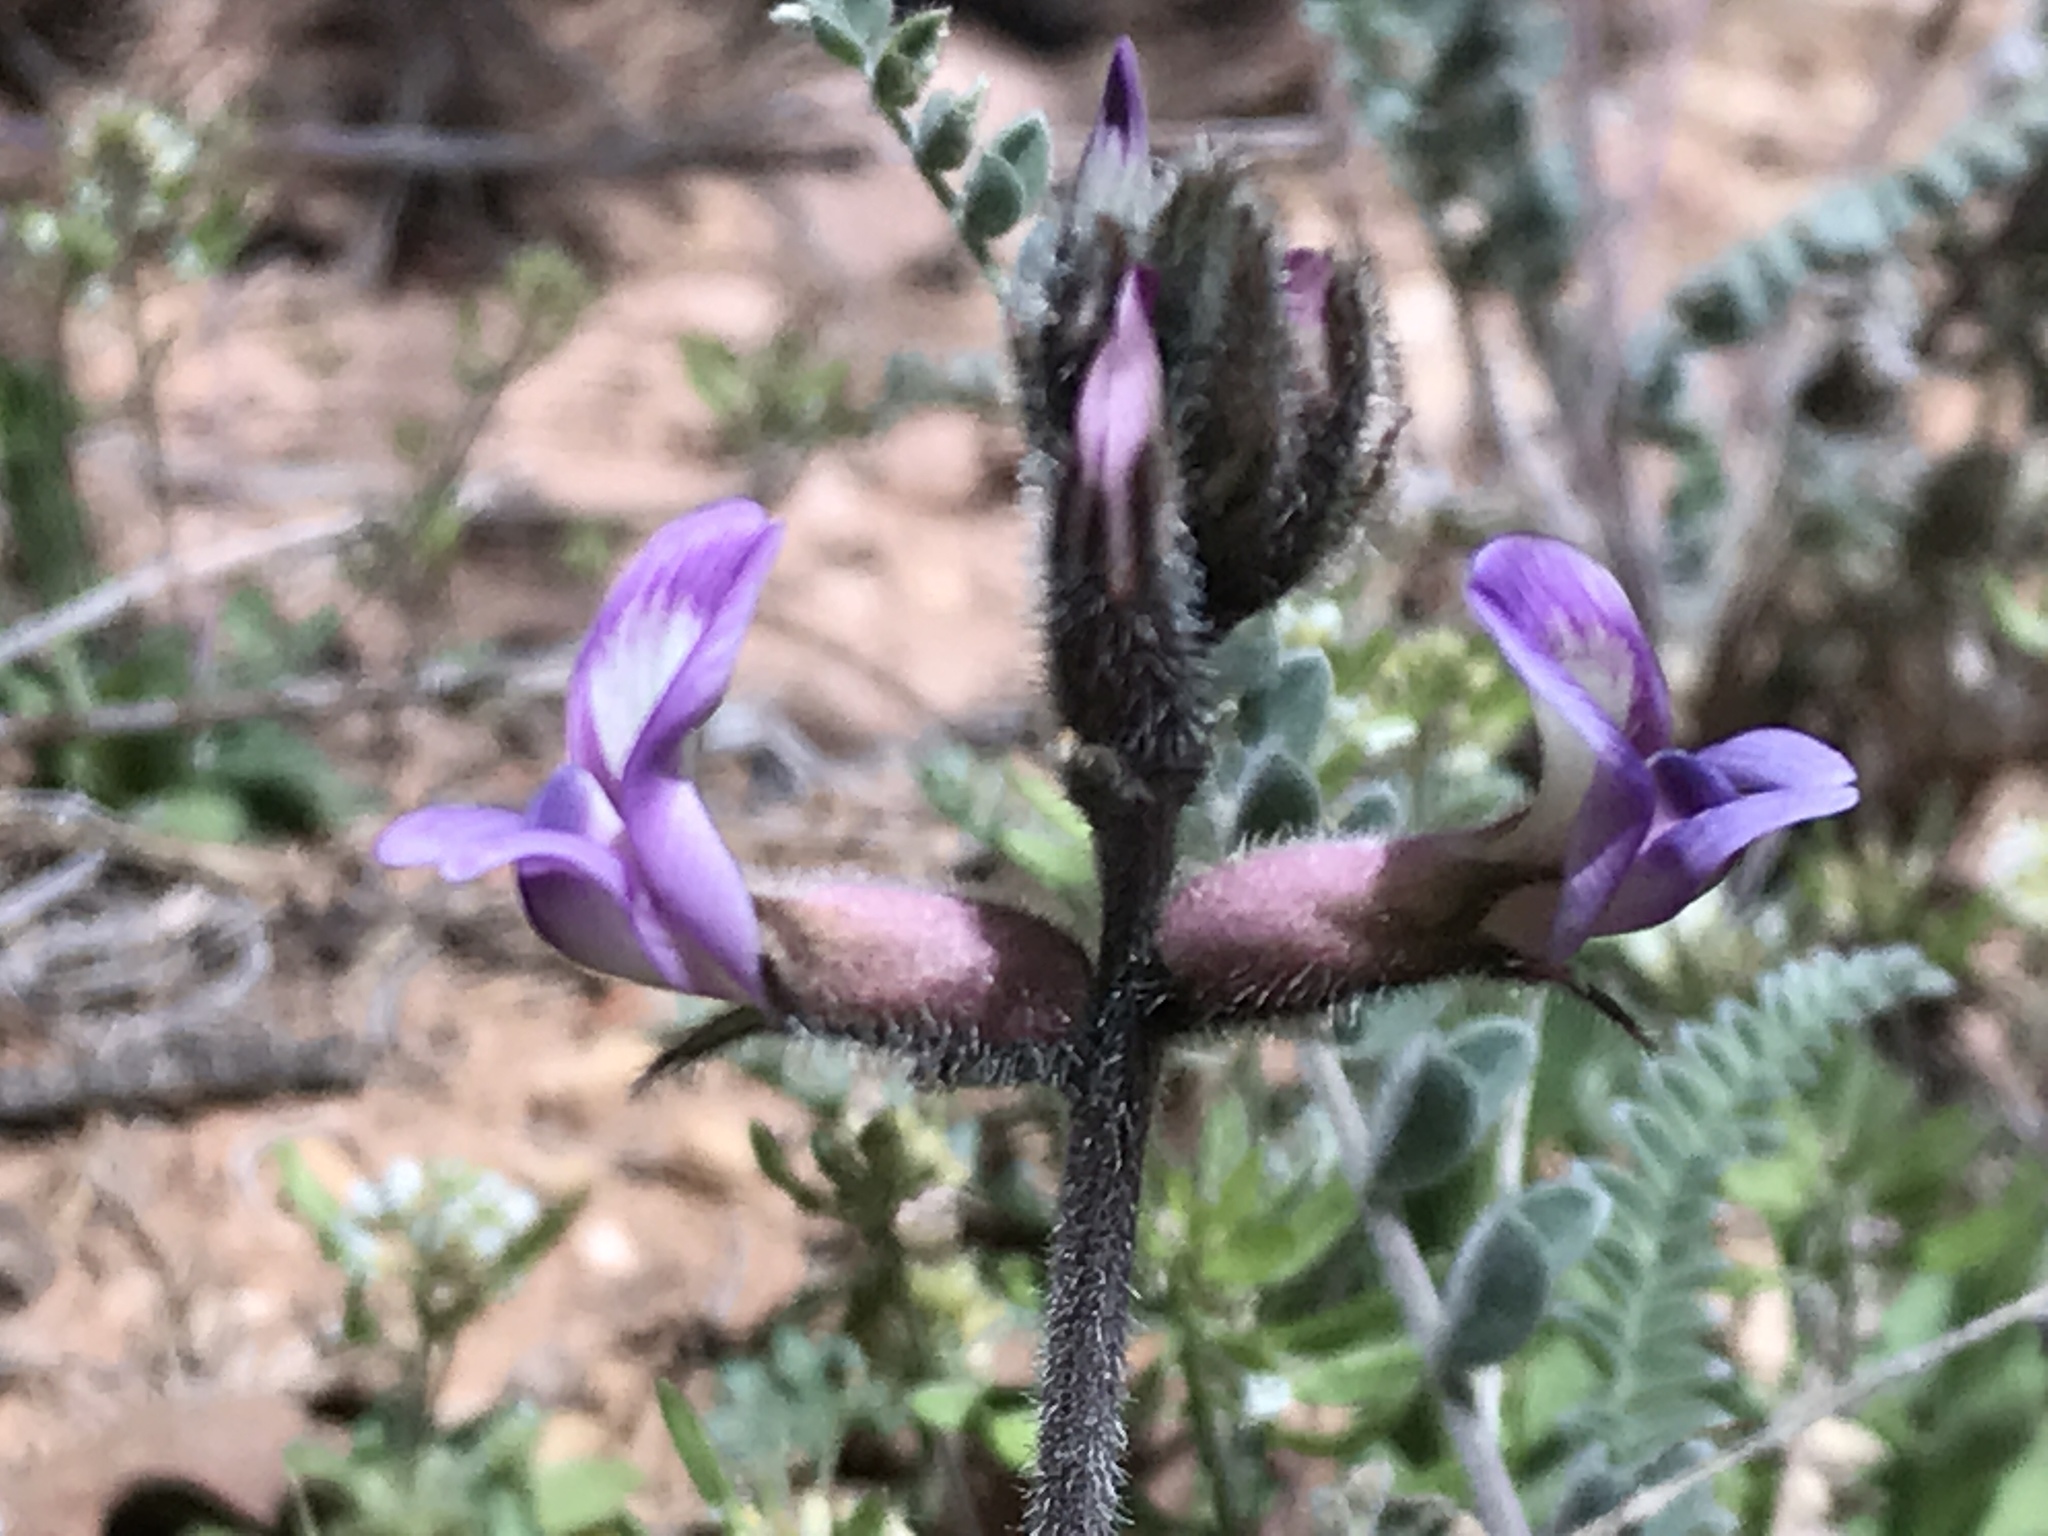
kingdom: Plantae
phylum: Tracheophyta
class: Magnoliopsida
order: Fabales
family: Fabaceae
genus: Astragalus
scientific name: Astragalus mollissimus
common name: Woolly locoweed
